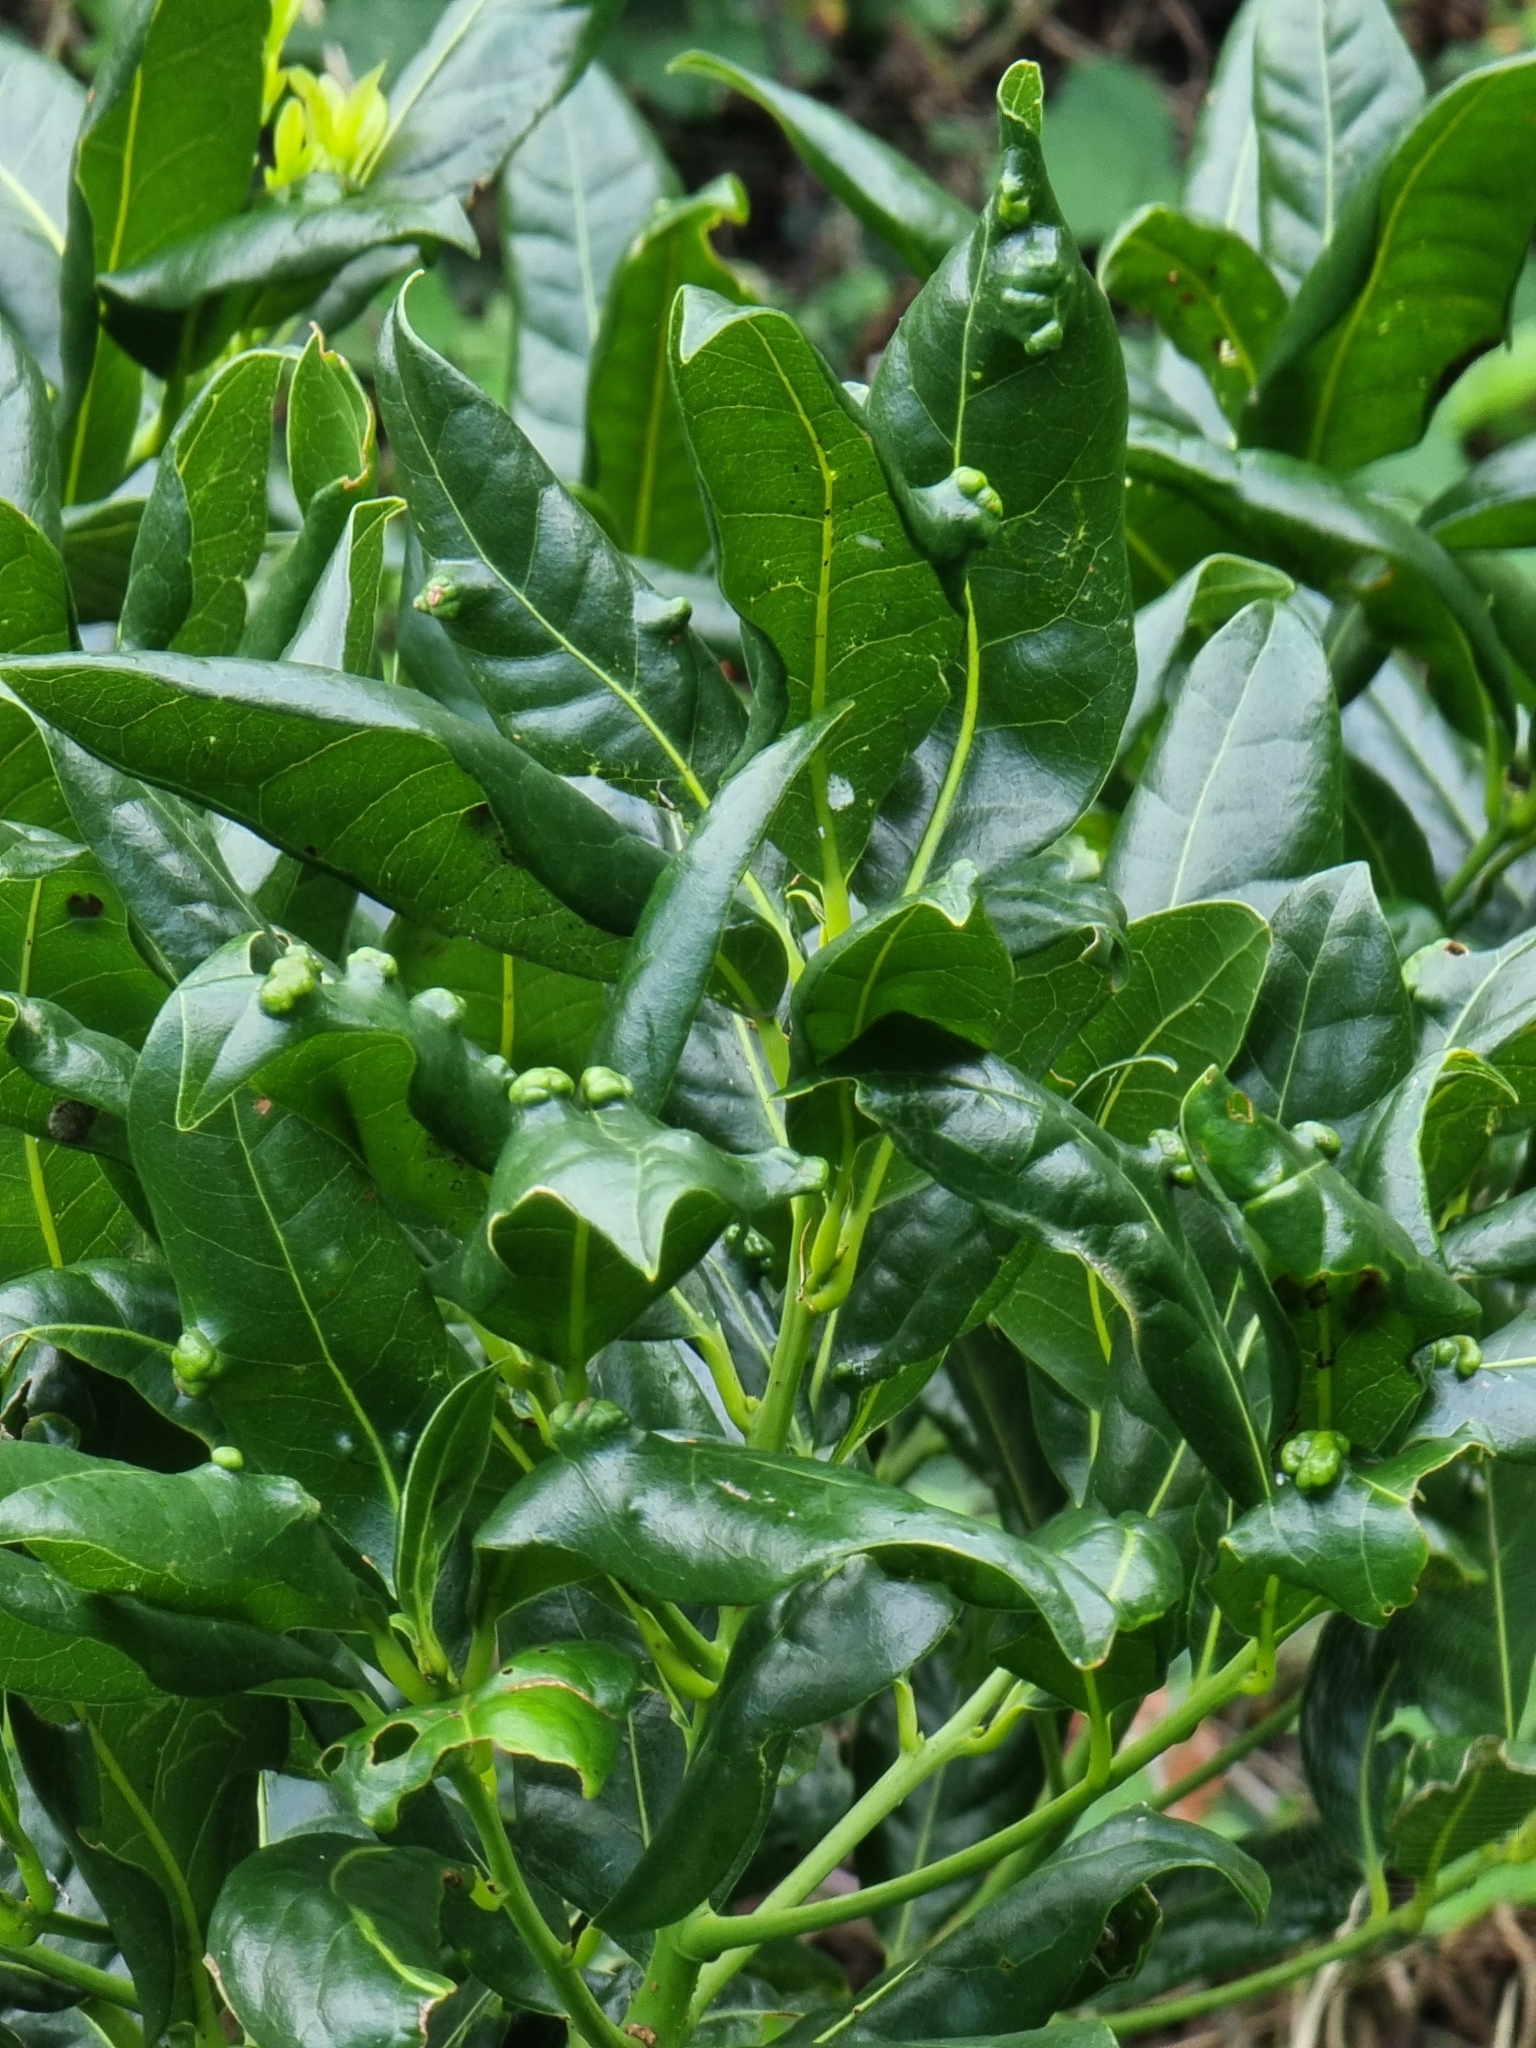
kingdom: Plantae
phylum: Tracheophyta
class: Magnoliopsida
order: Laurales
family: Lauraceae
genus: Apollonias
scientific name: Apollonias barbujana
